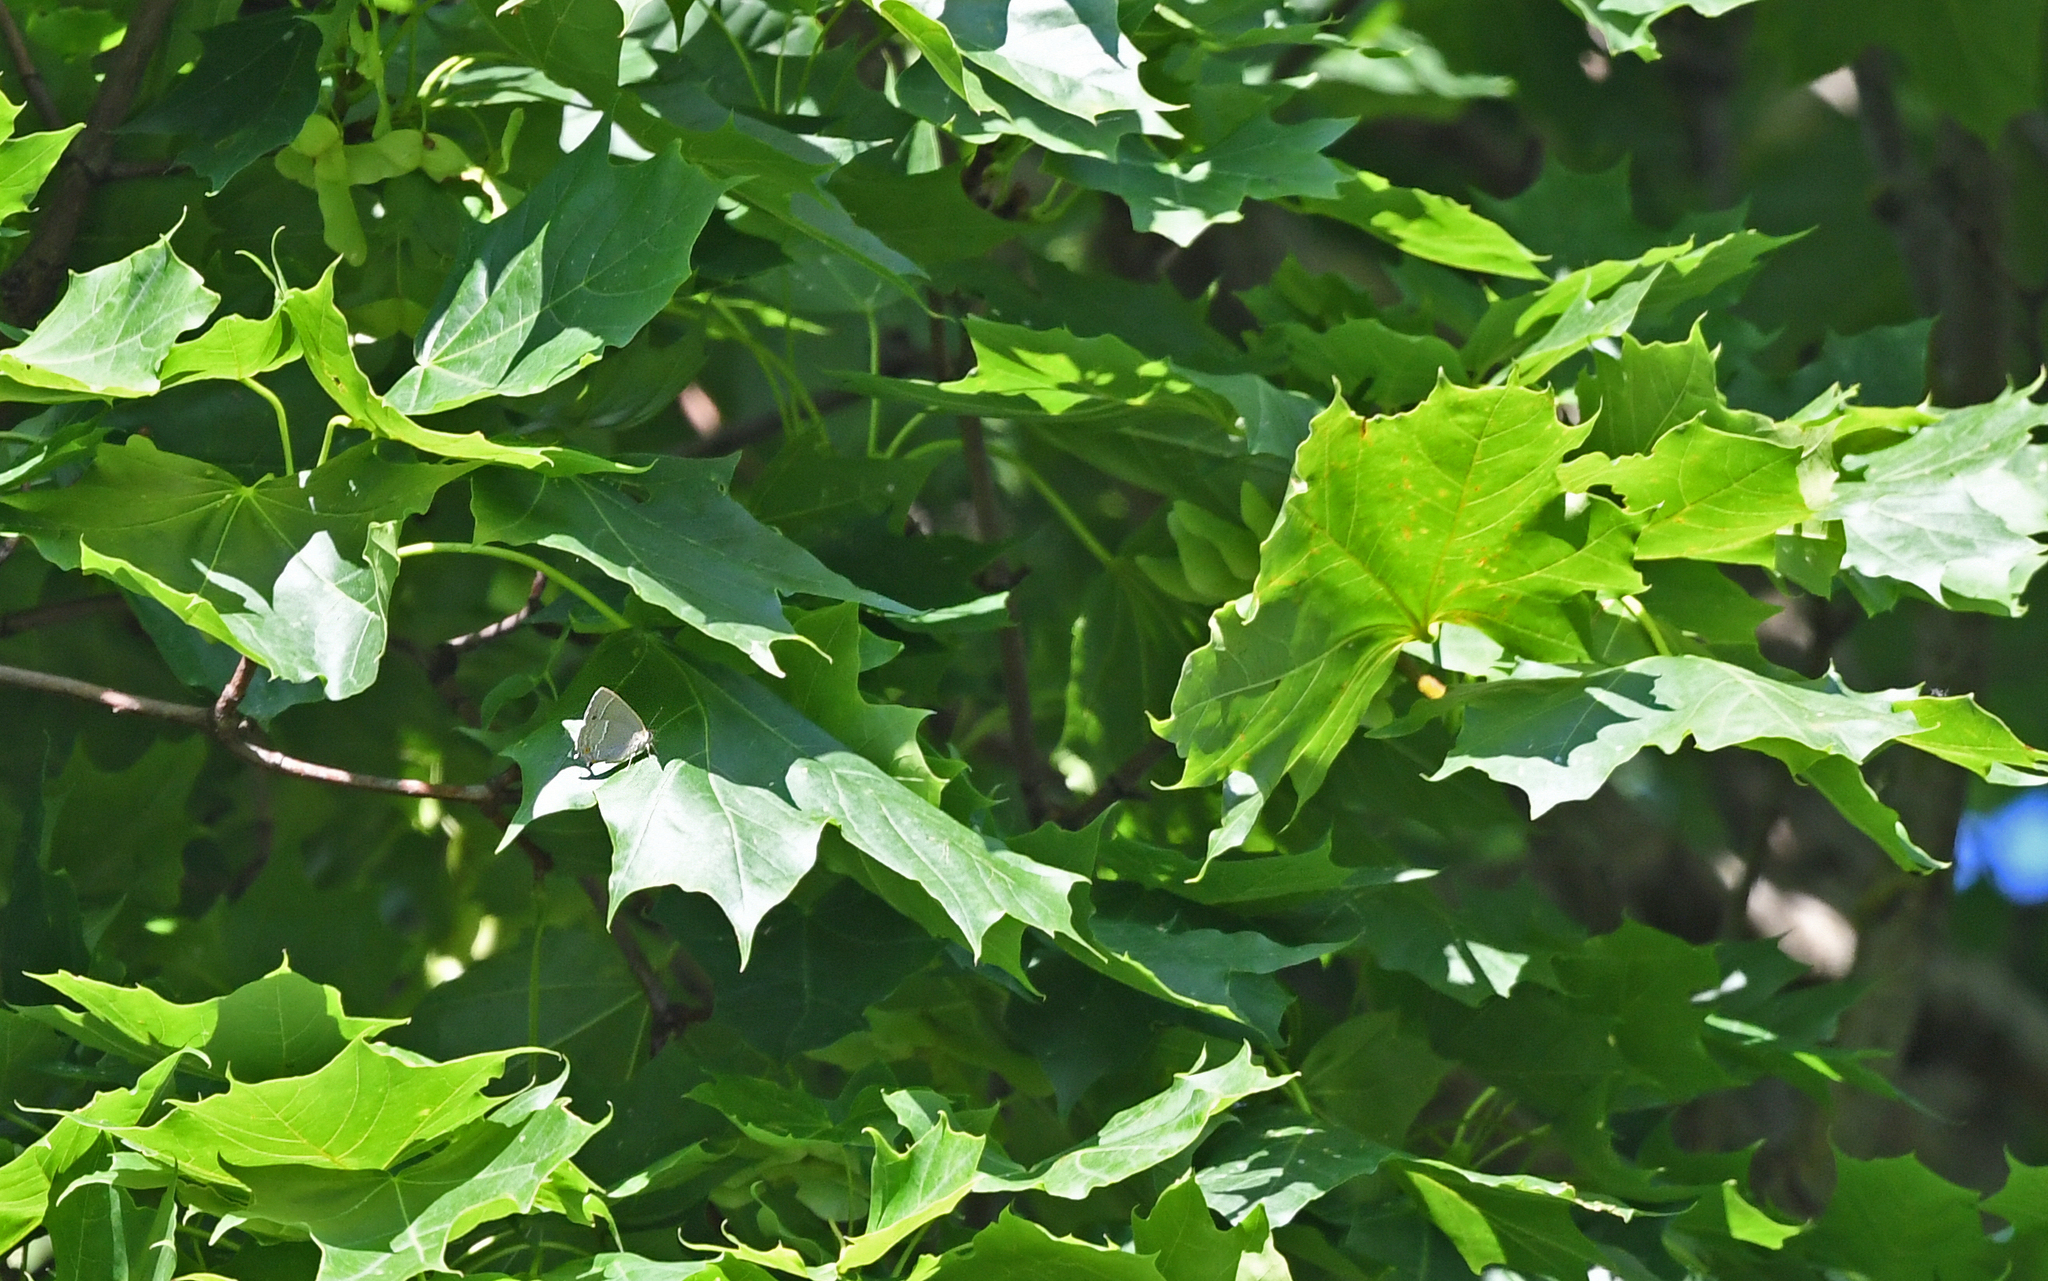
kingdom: Animalia
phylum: Arthropoda
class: Insecta
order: Lepidoptera
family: Lycaenidae
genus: Quercusia
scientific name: Quercusia quercus
